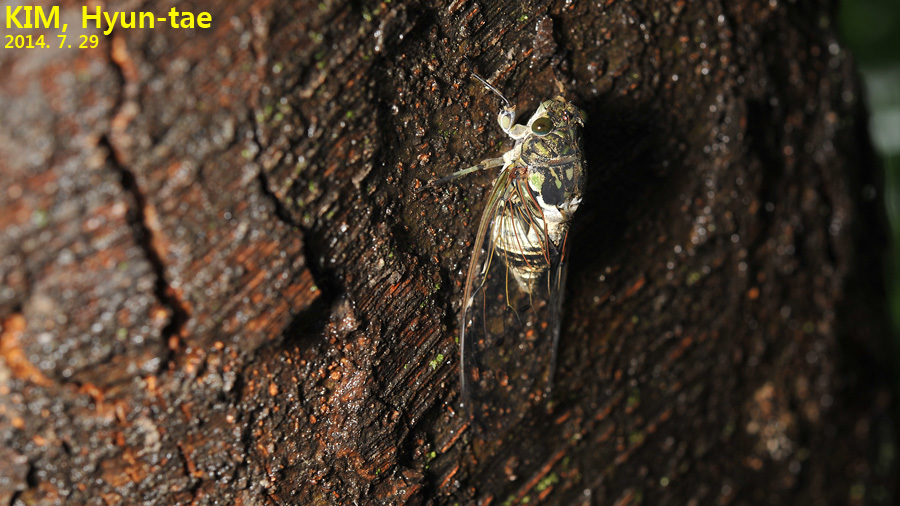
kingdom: Animalia
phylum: Arthropoda
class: Insecta
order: Hemiptera
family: Cicadidae
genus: Hyalessa
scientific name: Hyalessa maculaticollis
